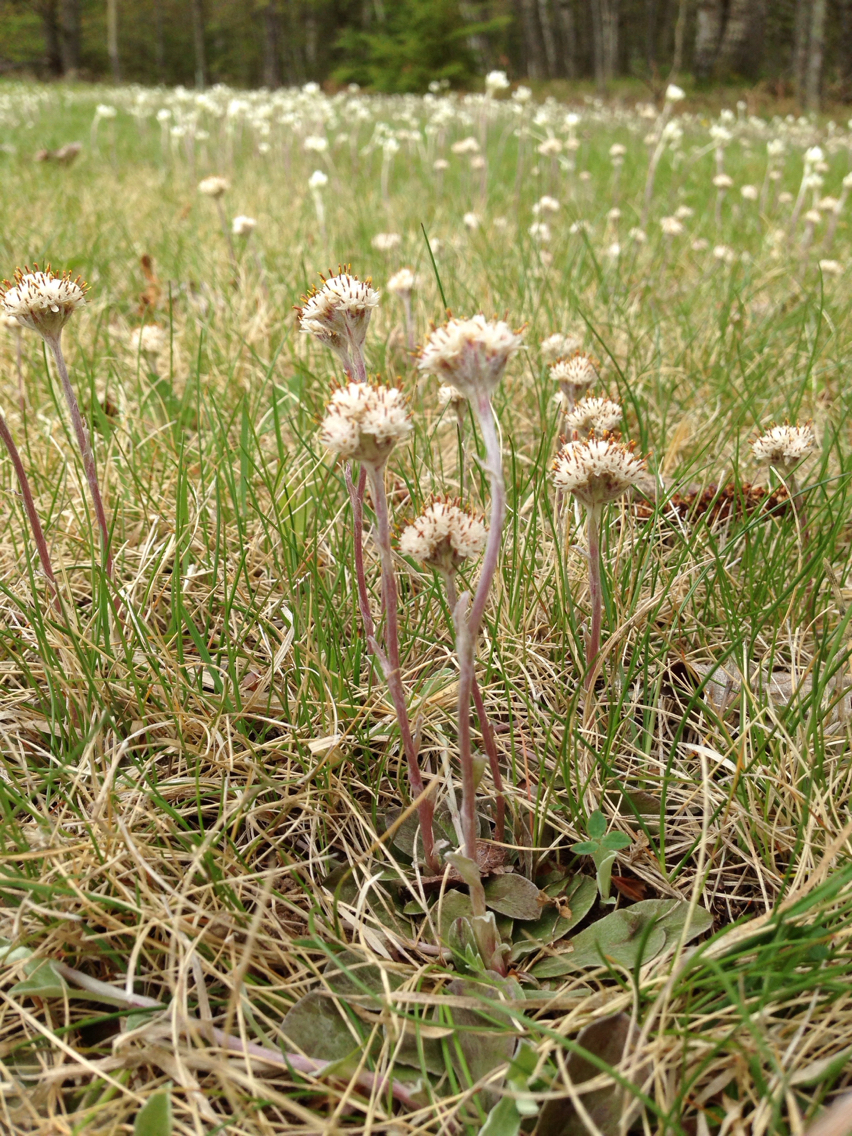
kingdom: Plantae
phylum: Tracheophyta
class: Magnoliopsida
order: Asterales
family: Asteraceae
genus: Antennaria
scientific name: Antennaria neglecta
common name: Field pussytoes
